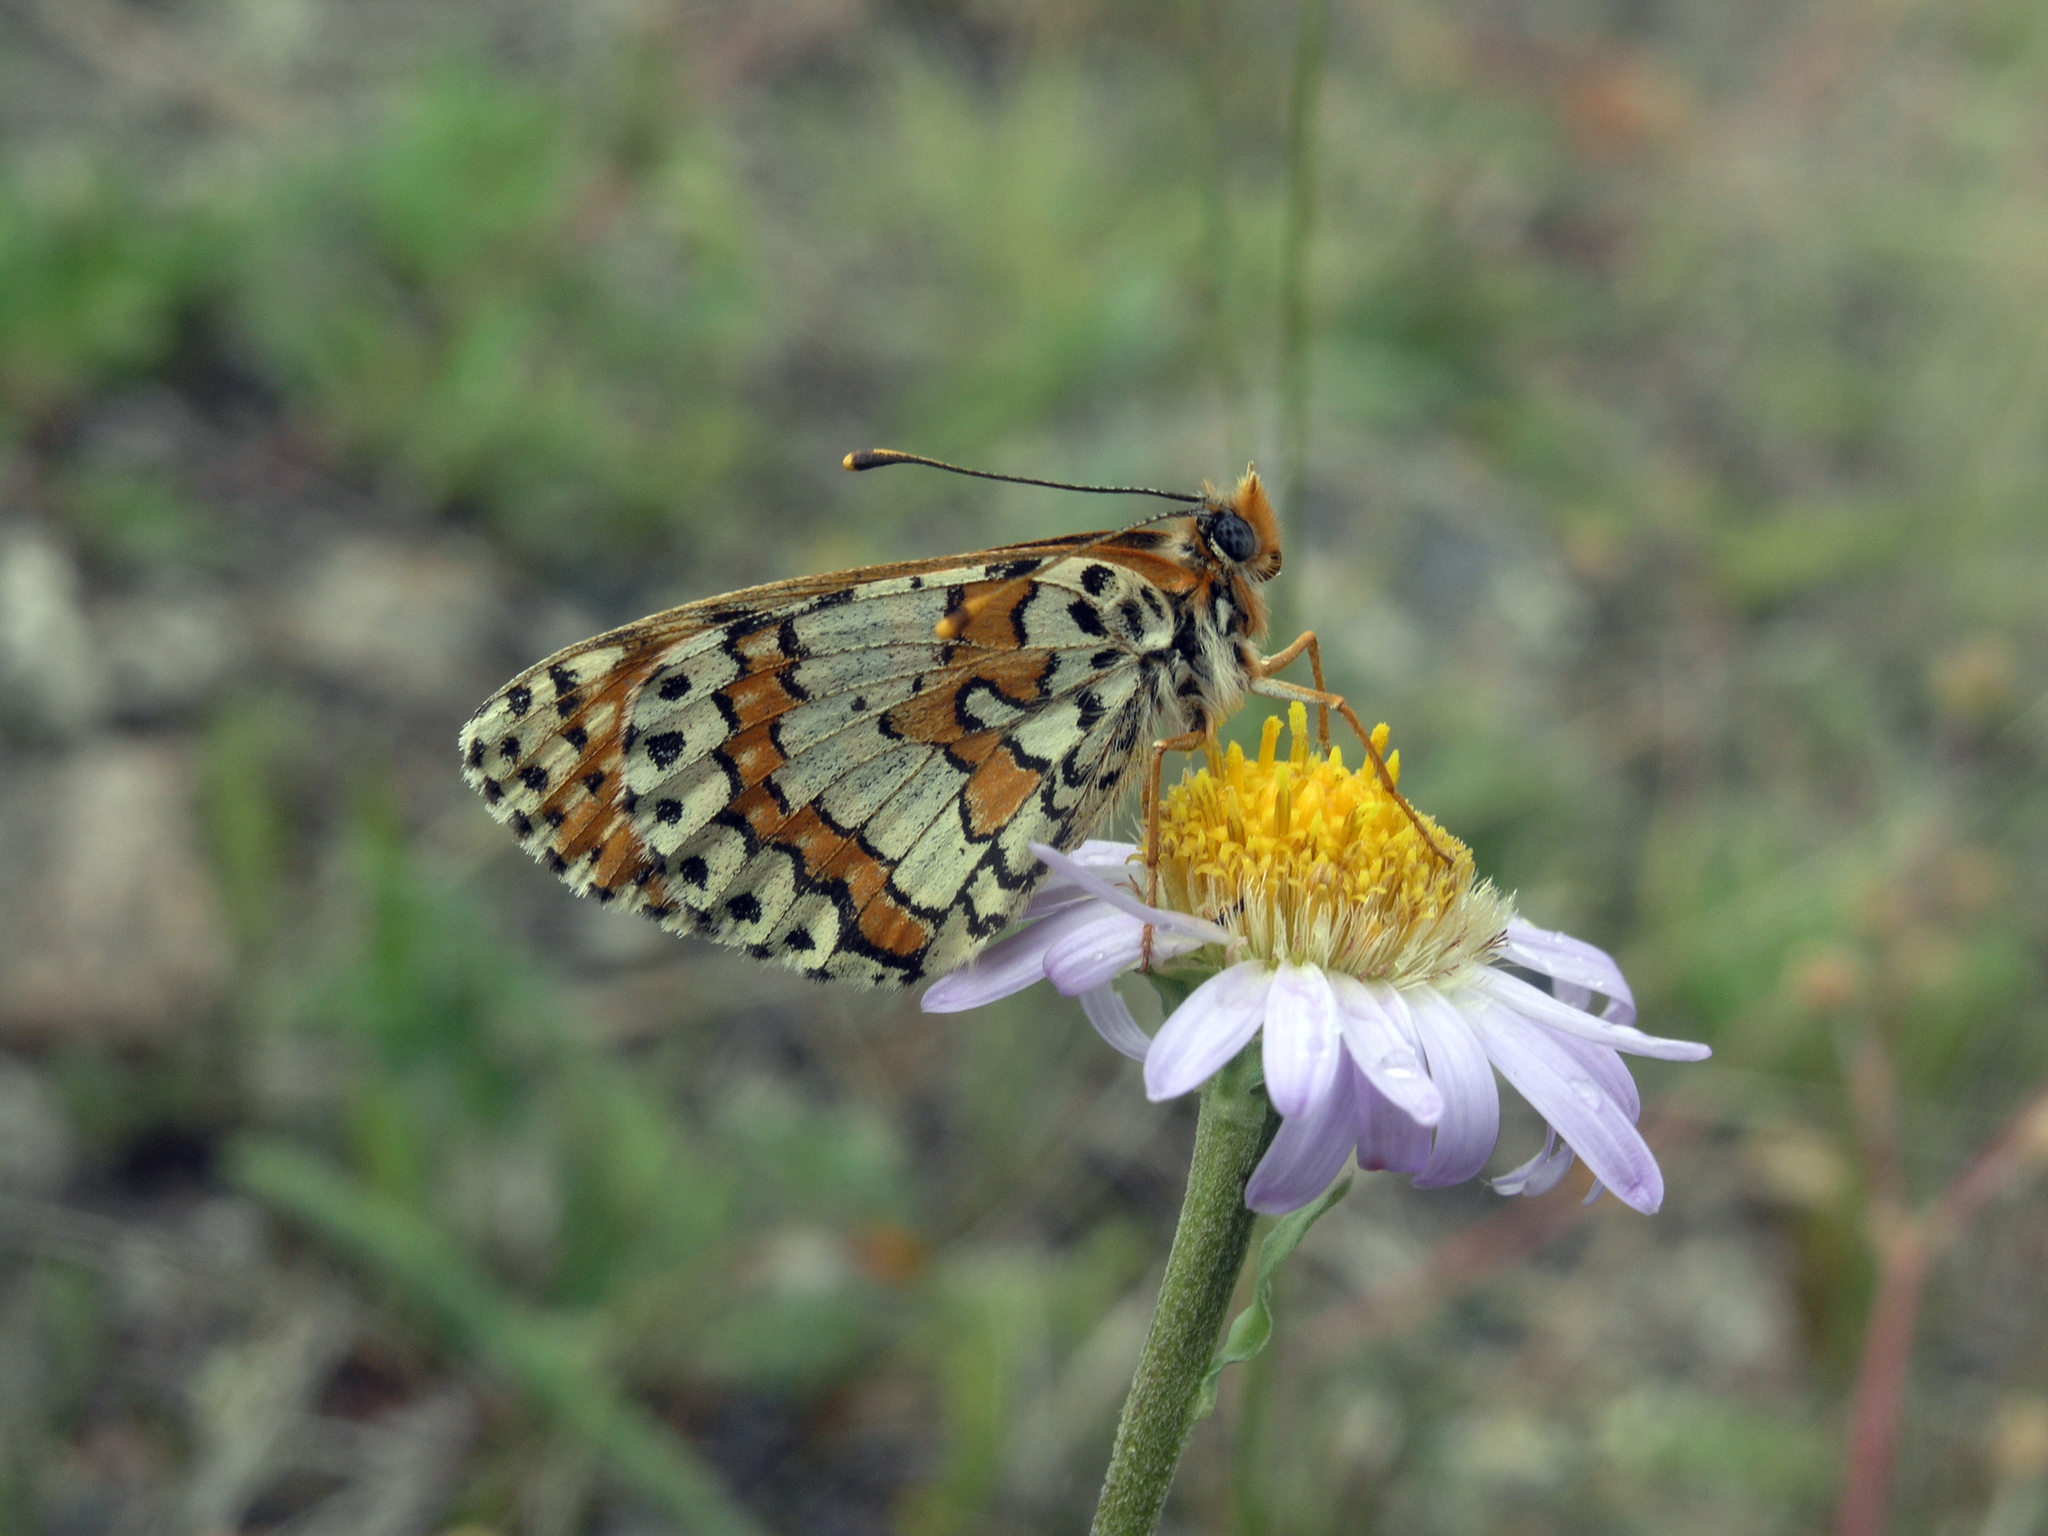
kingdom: Animalia
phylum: Arthropoda
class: Insecta
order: Lepidoptera
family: Nymphalidae
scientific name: Nymphalidae
